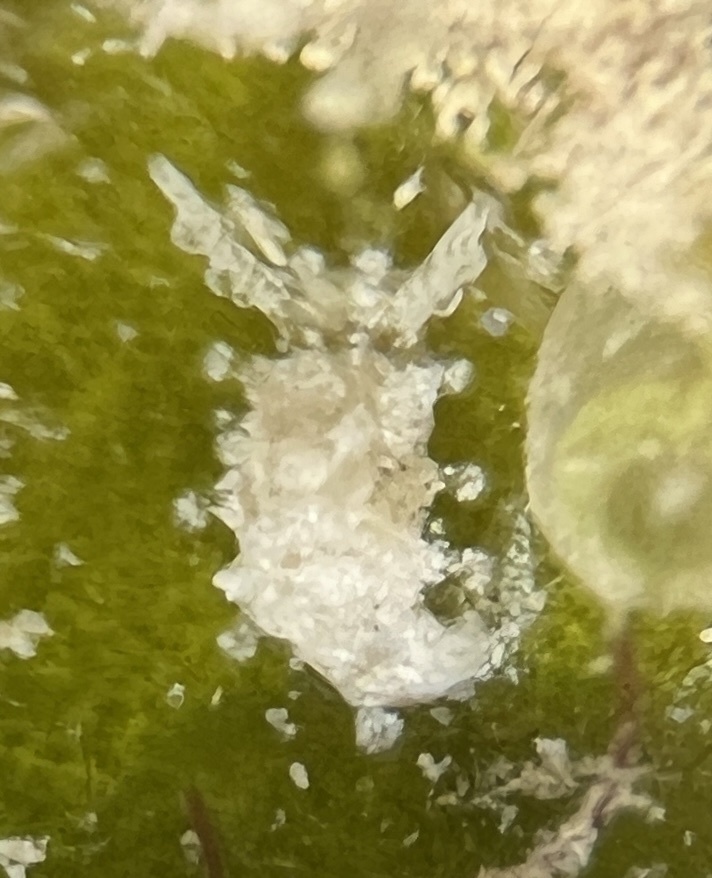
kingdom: Animalia
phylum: Mollusca
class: Gastropoda
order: Nudibranchia
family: Goniodorididae
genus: Okenia
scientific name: Okenia zoobotryon
